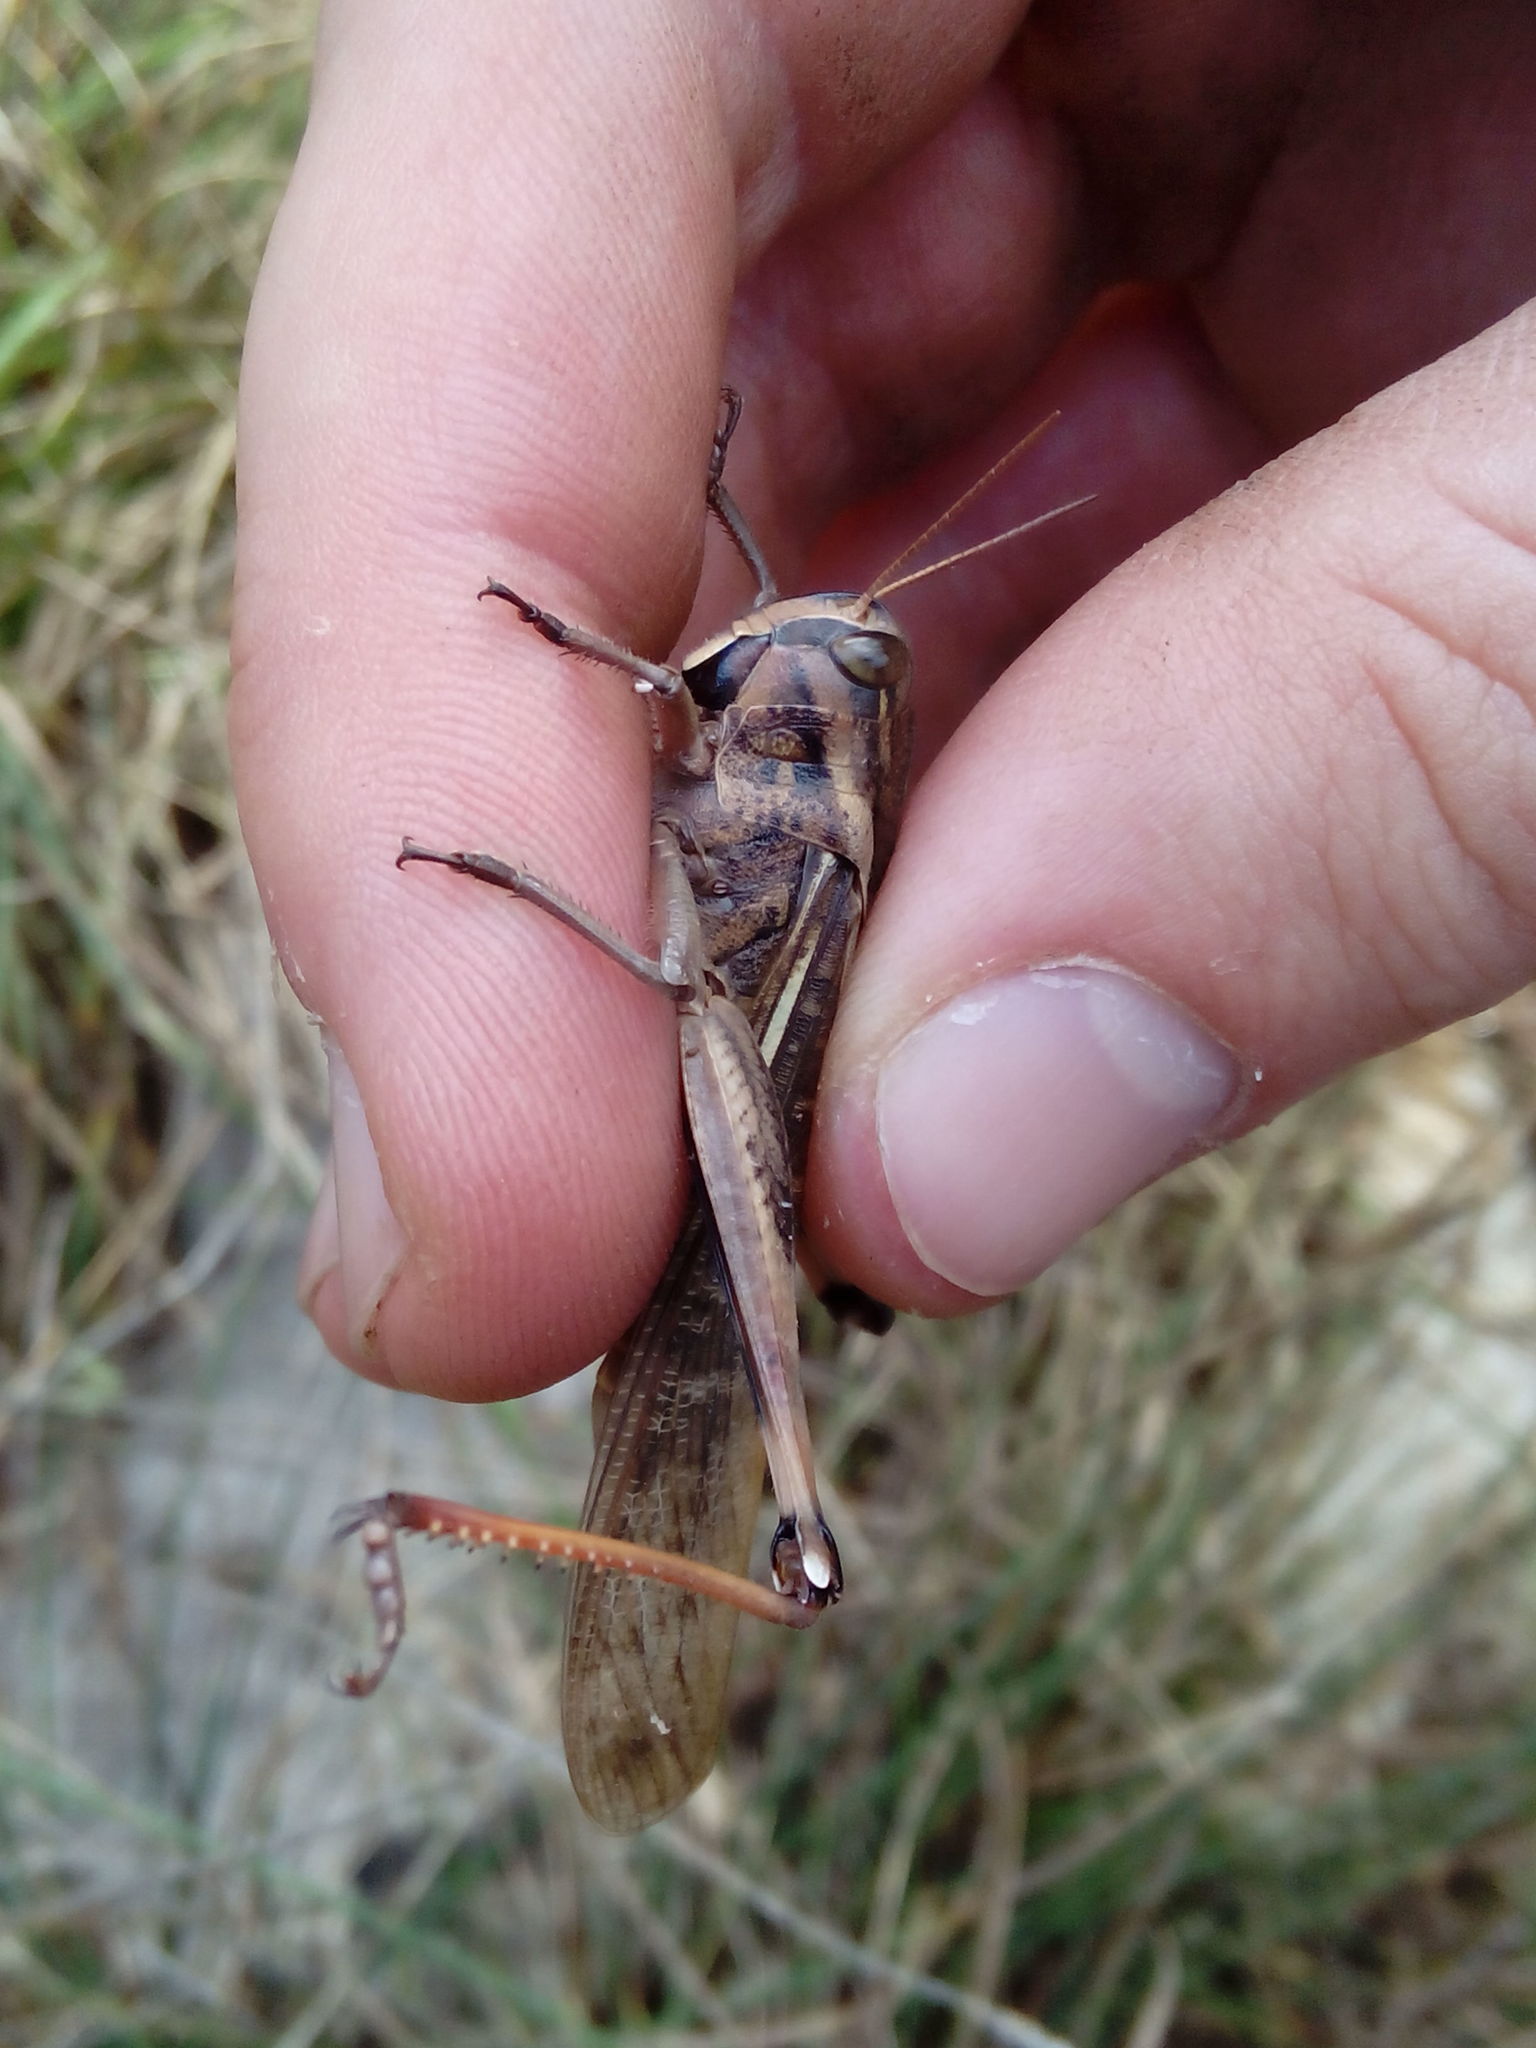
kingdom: Animalia
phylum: Arthropoda
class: Insecta
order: Orthoptera
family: Acrididae
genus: Locusta
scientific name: Locusta migratoria
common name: Migratory locust
